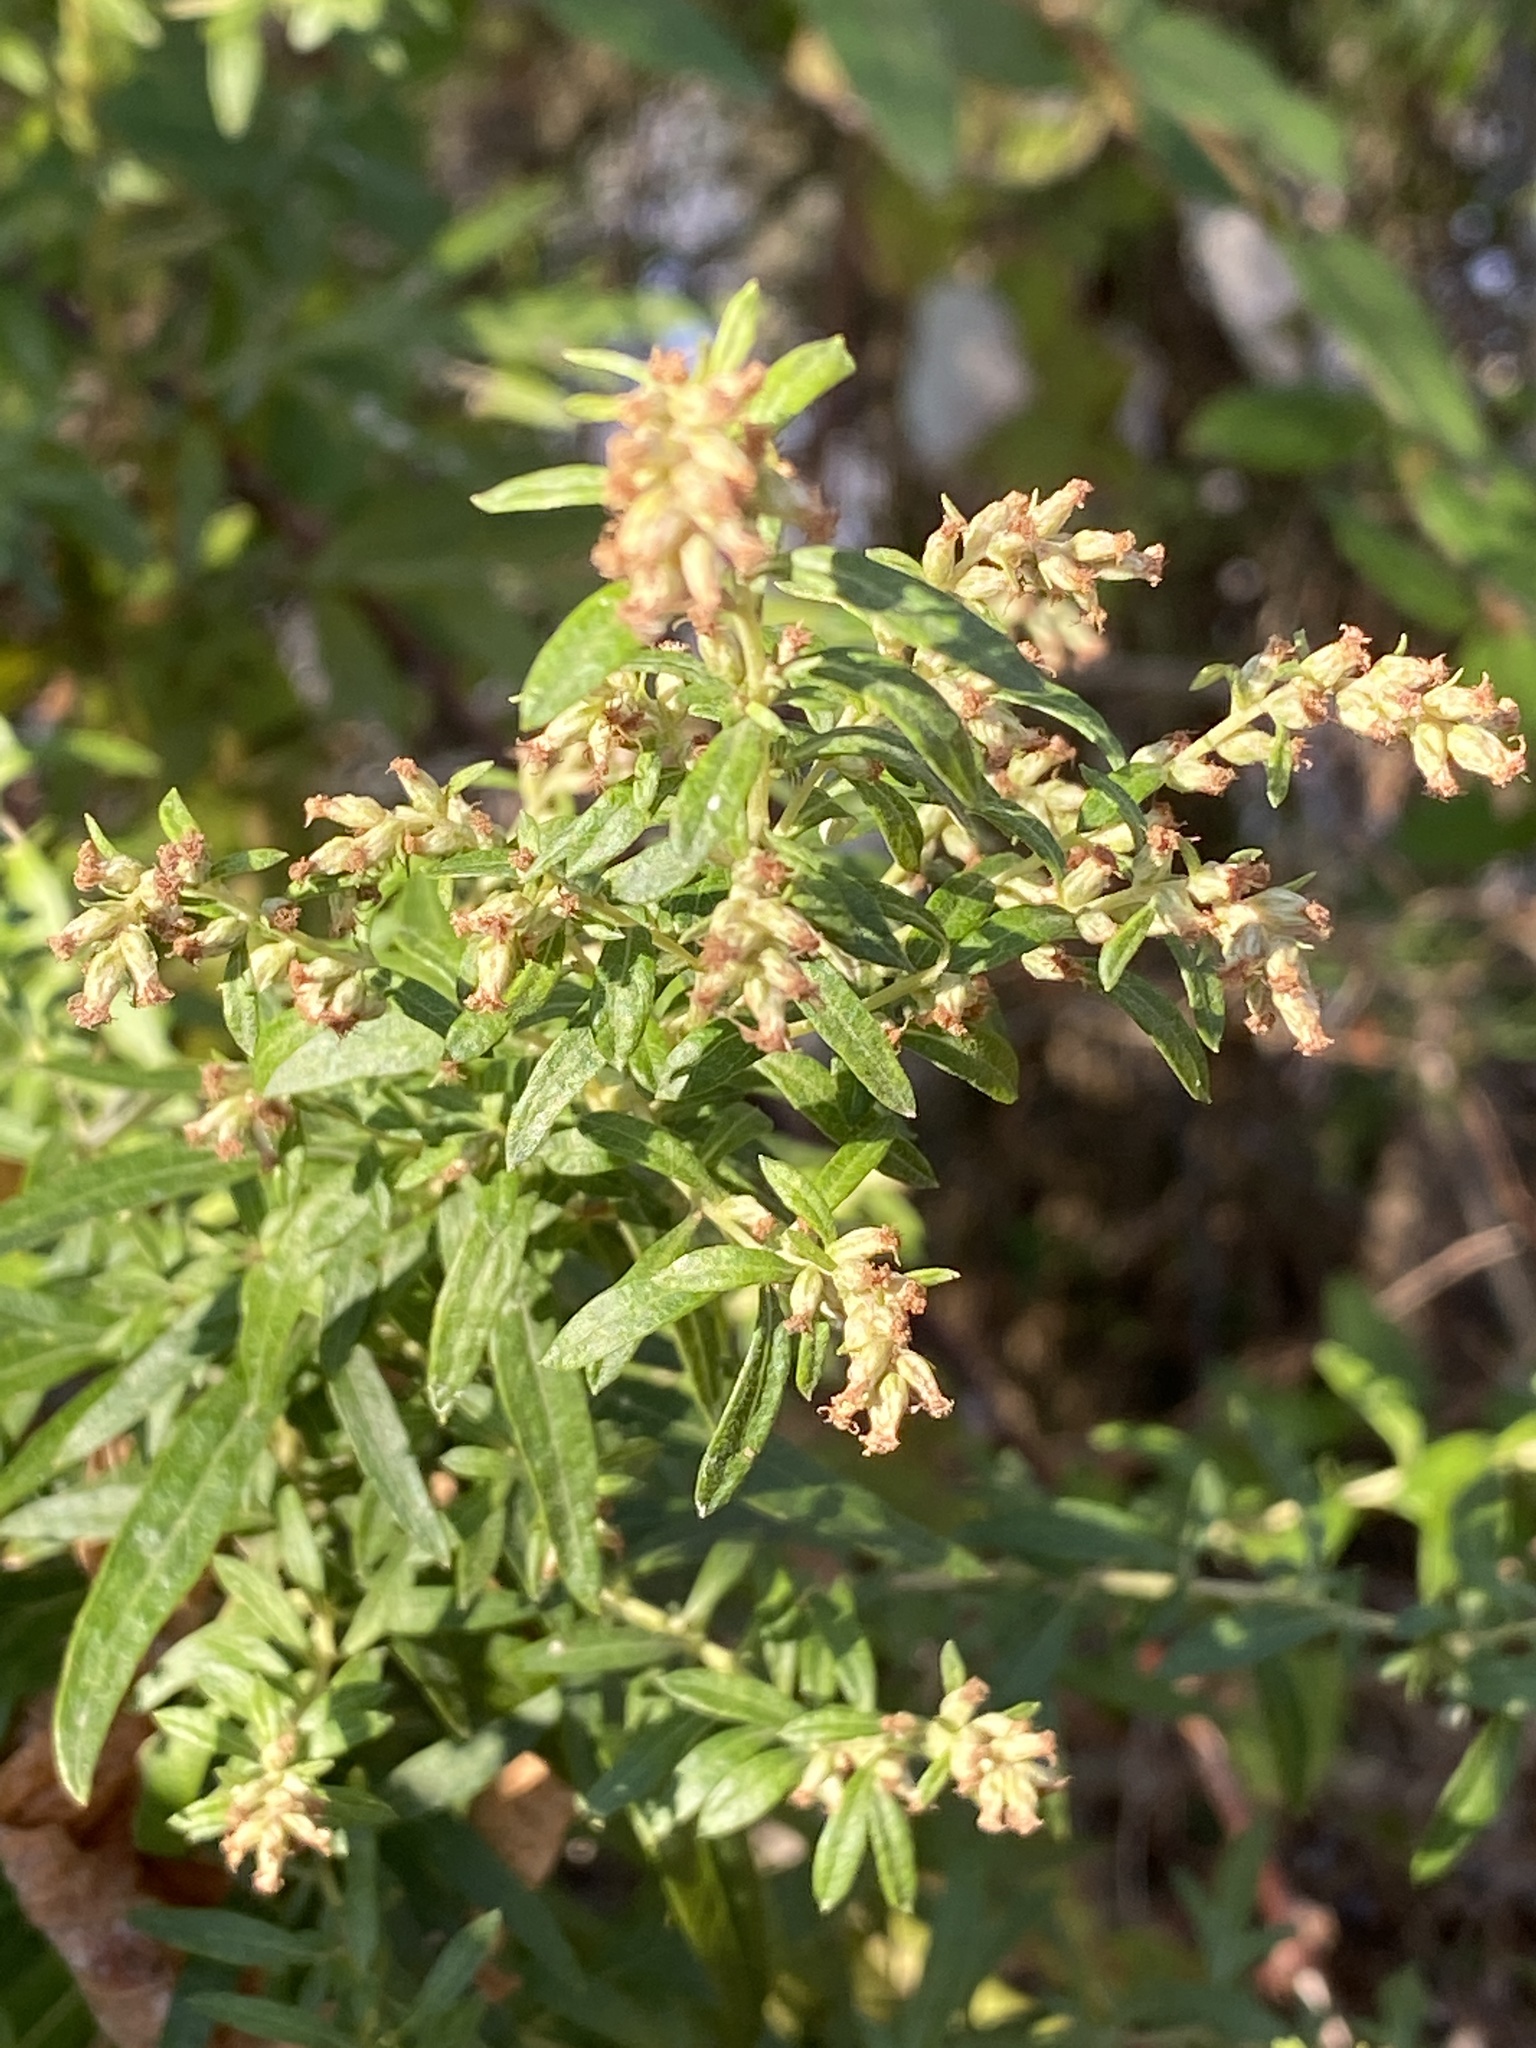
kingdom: Plantae
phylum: Tracheophyta
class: Magnoliopsida
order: Asterales
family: Asteraceae
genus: Artemisia
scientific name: Artemisia vulgaris
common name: Mugwort
